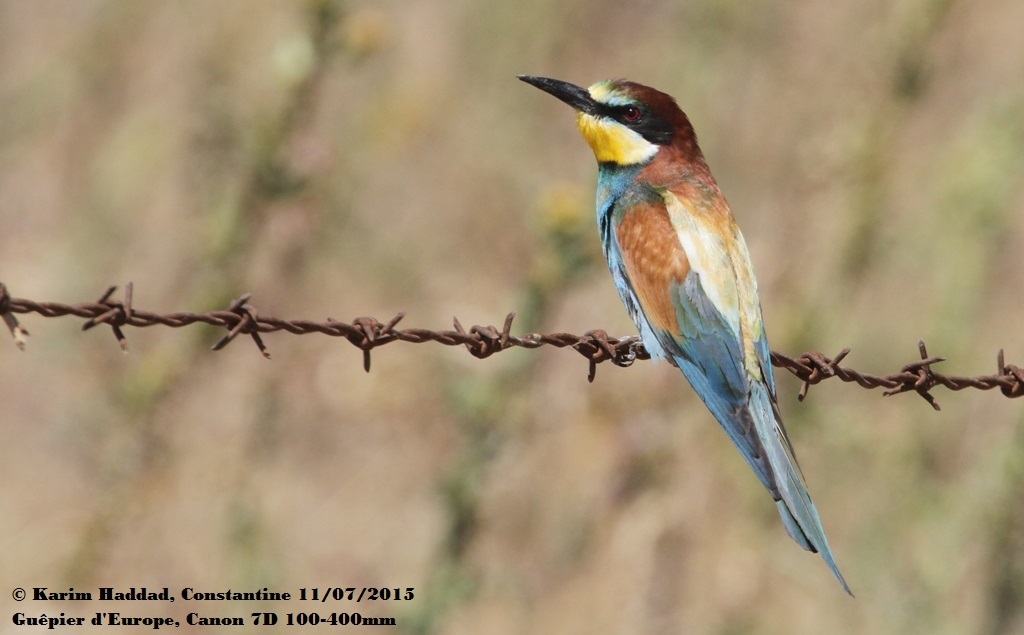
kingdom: Animalia
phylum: Chordata
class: Aves
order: Coraciiformes
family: Meropidae
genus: Merops
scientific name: Merops apiaster
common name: European bee-eater
